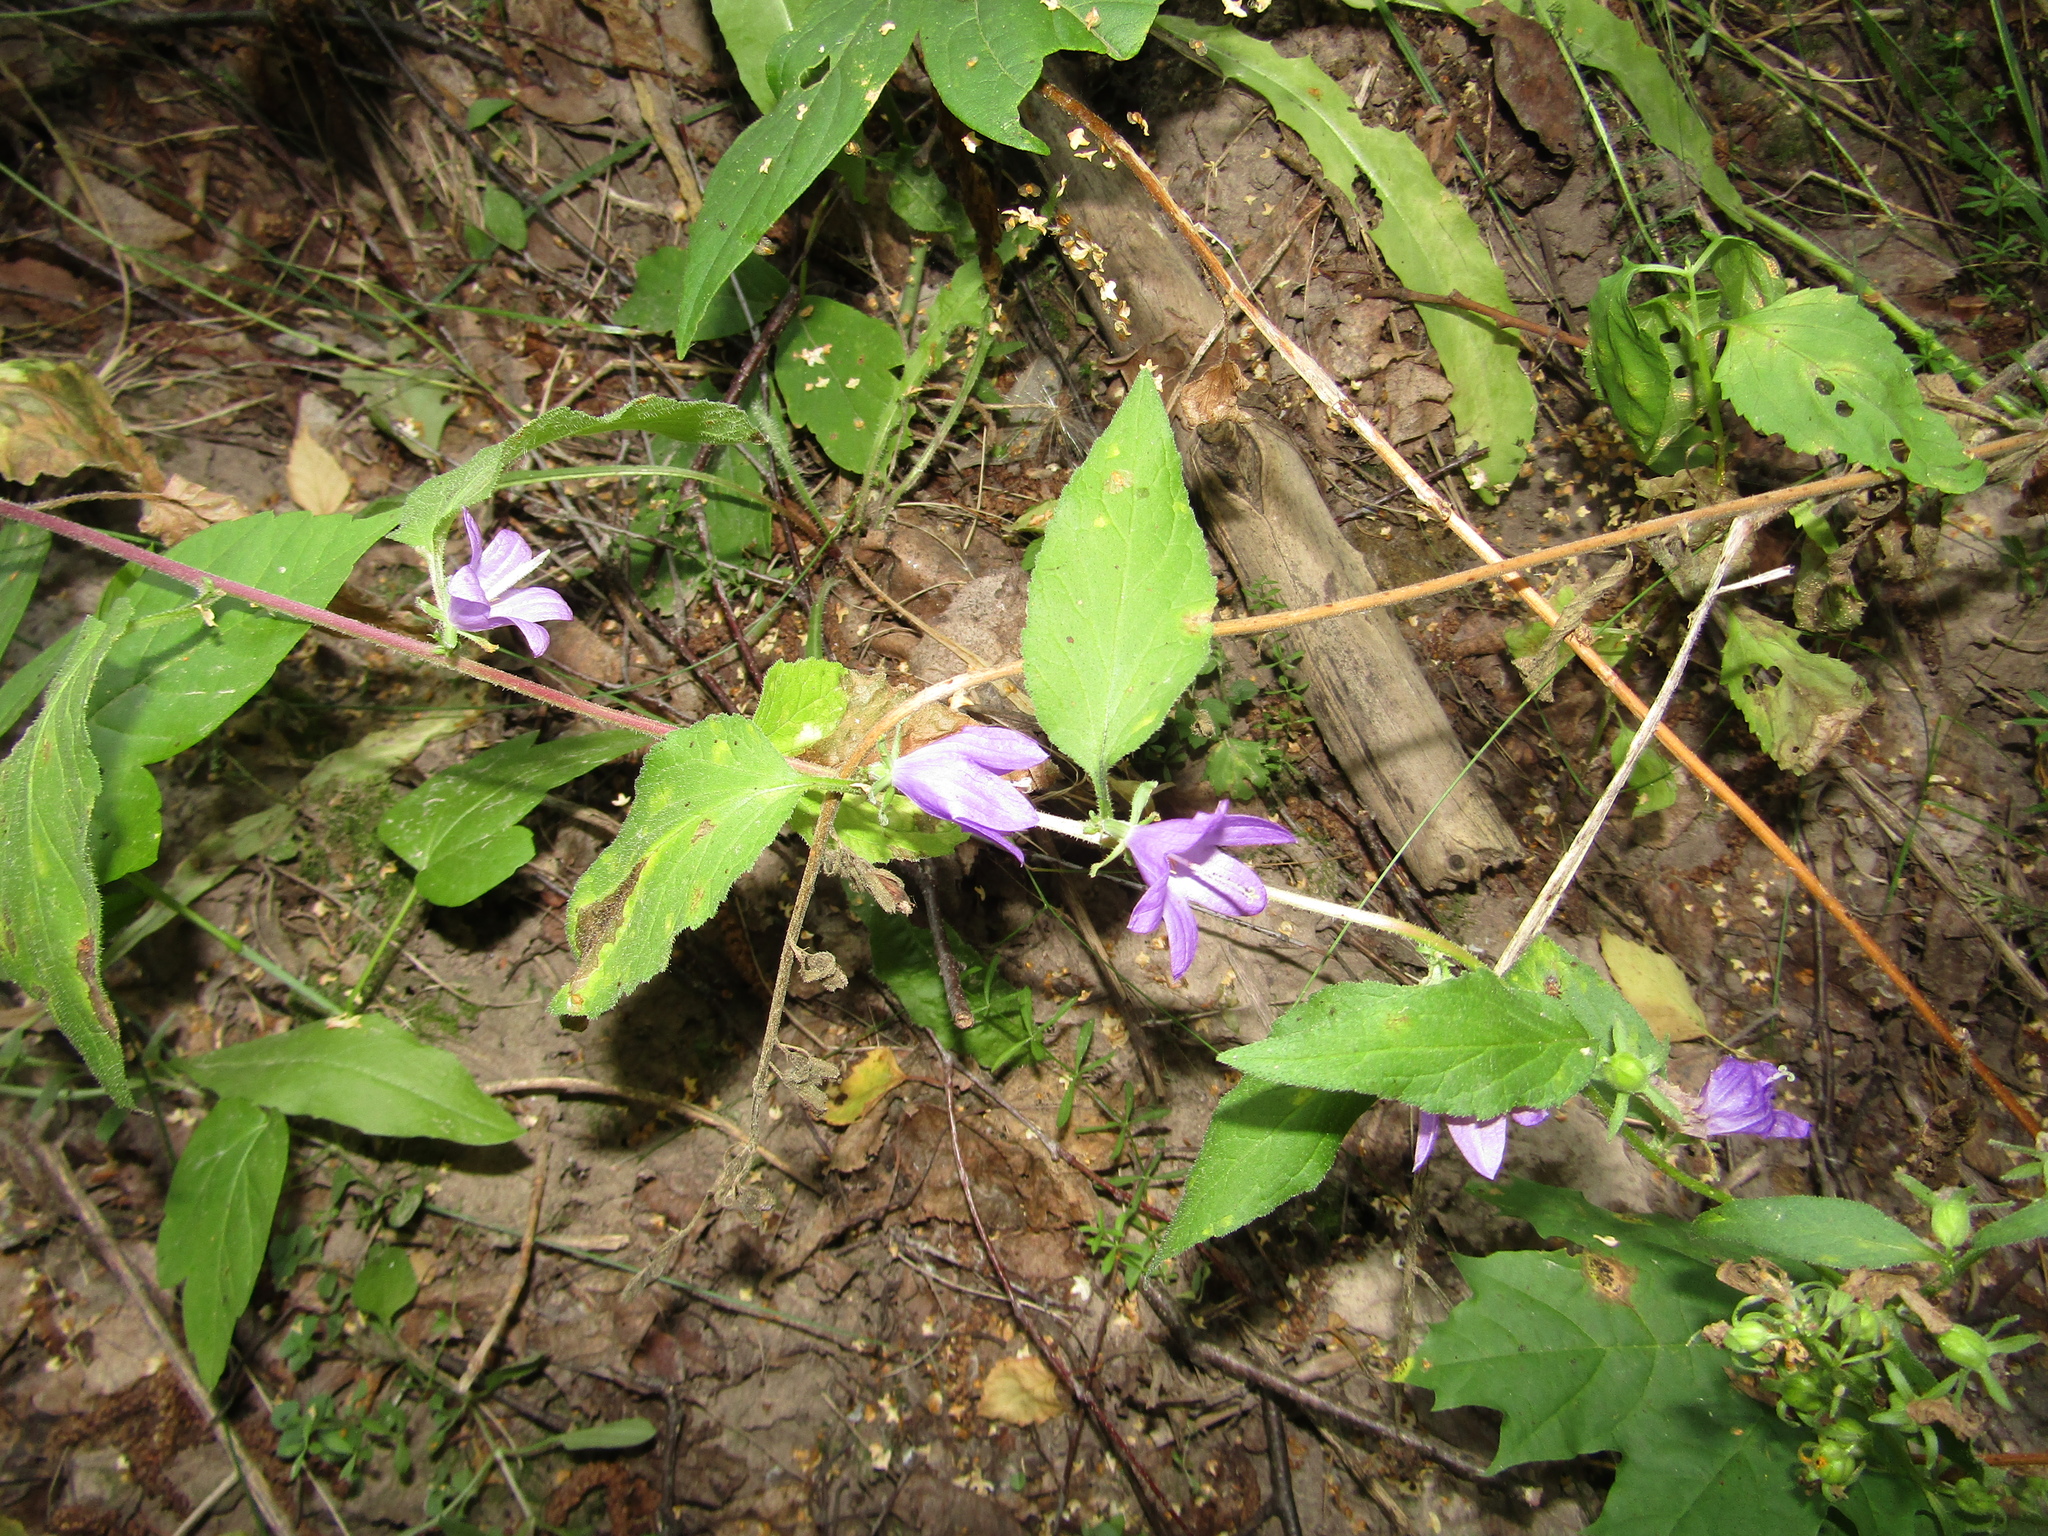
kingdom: Plantae
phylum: Tracheophyta
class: Magnoliopsida
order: Asterales
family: Campanulaceae
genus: Campanula
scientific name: Campanula rapunculoides
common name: Creeping bellflower
